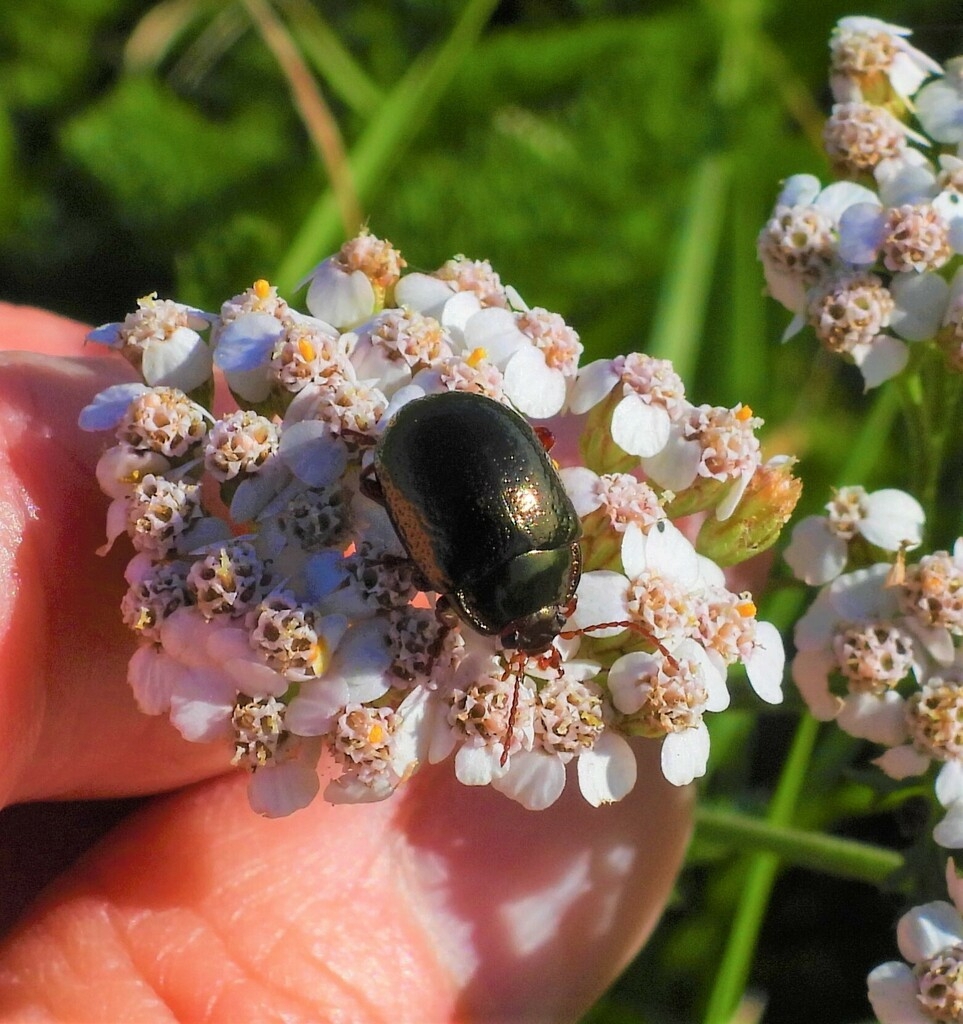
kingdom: Animalia
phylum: Arthropoda
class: Insecta
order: Coleoptera
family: Chrysomelidae
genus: Chrysolina
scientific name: Chrysolina bankii
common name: Leaf beetle
